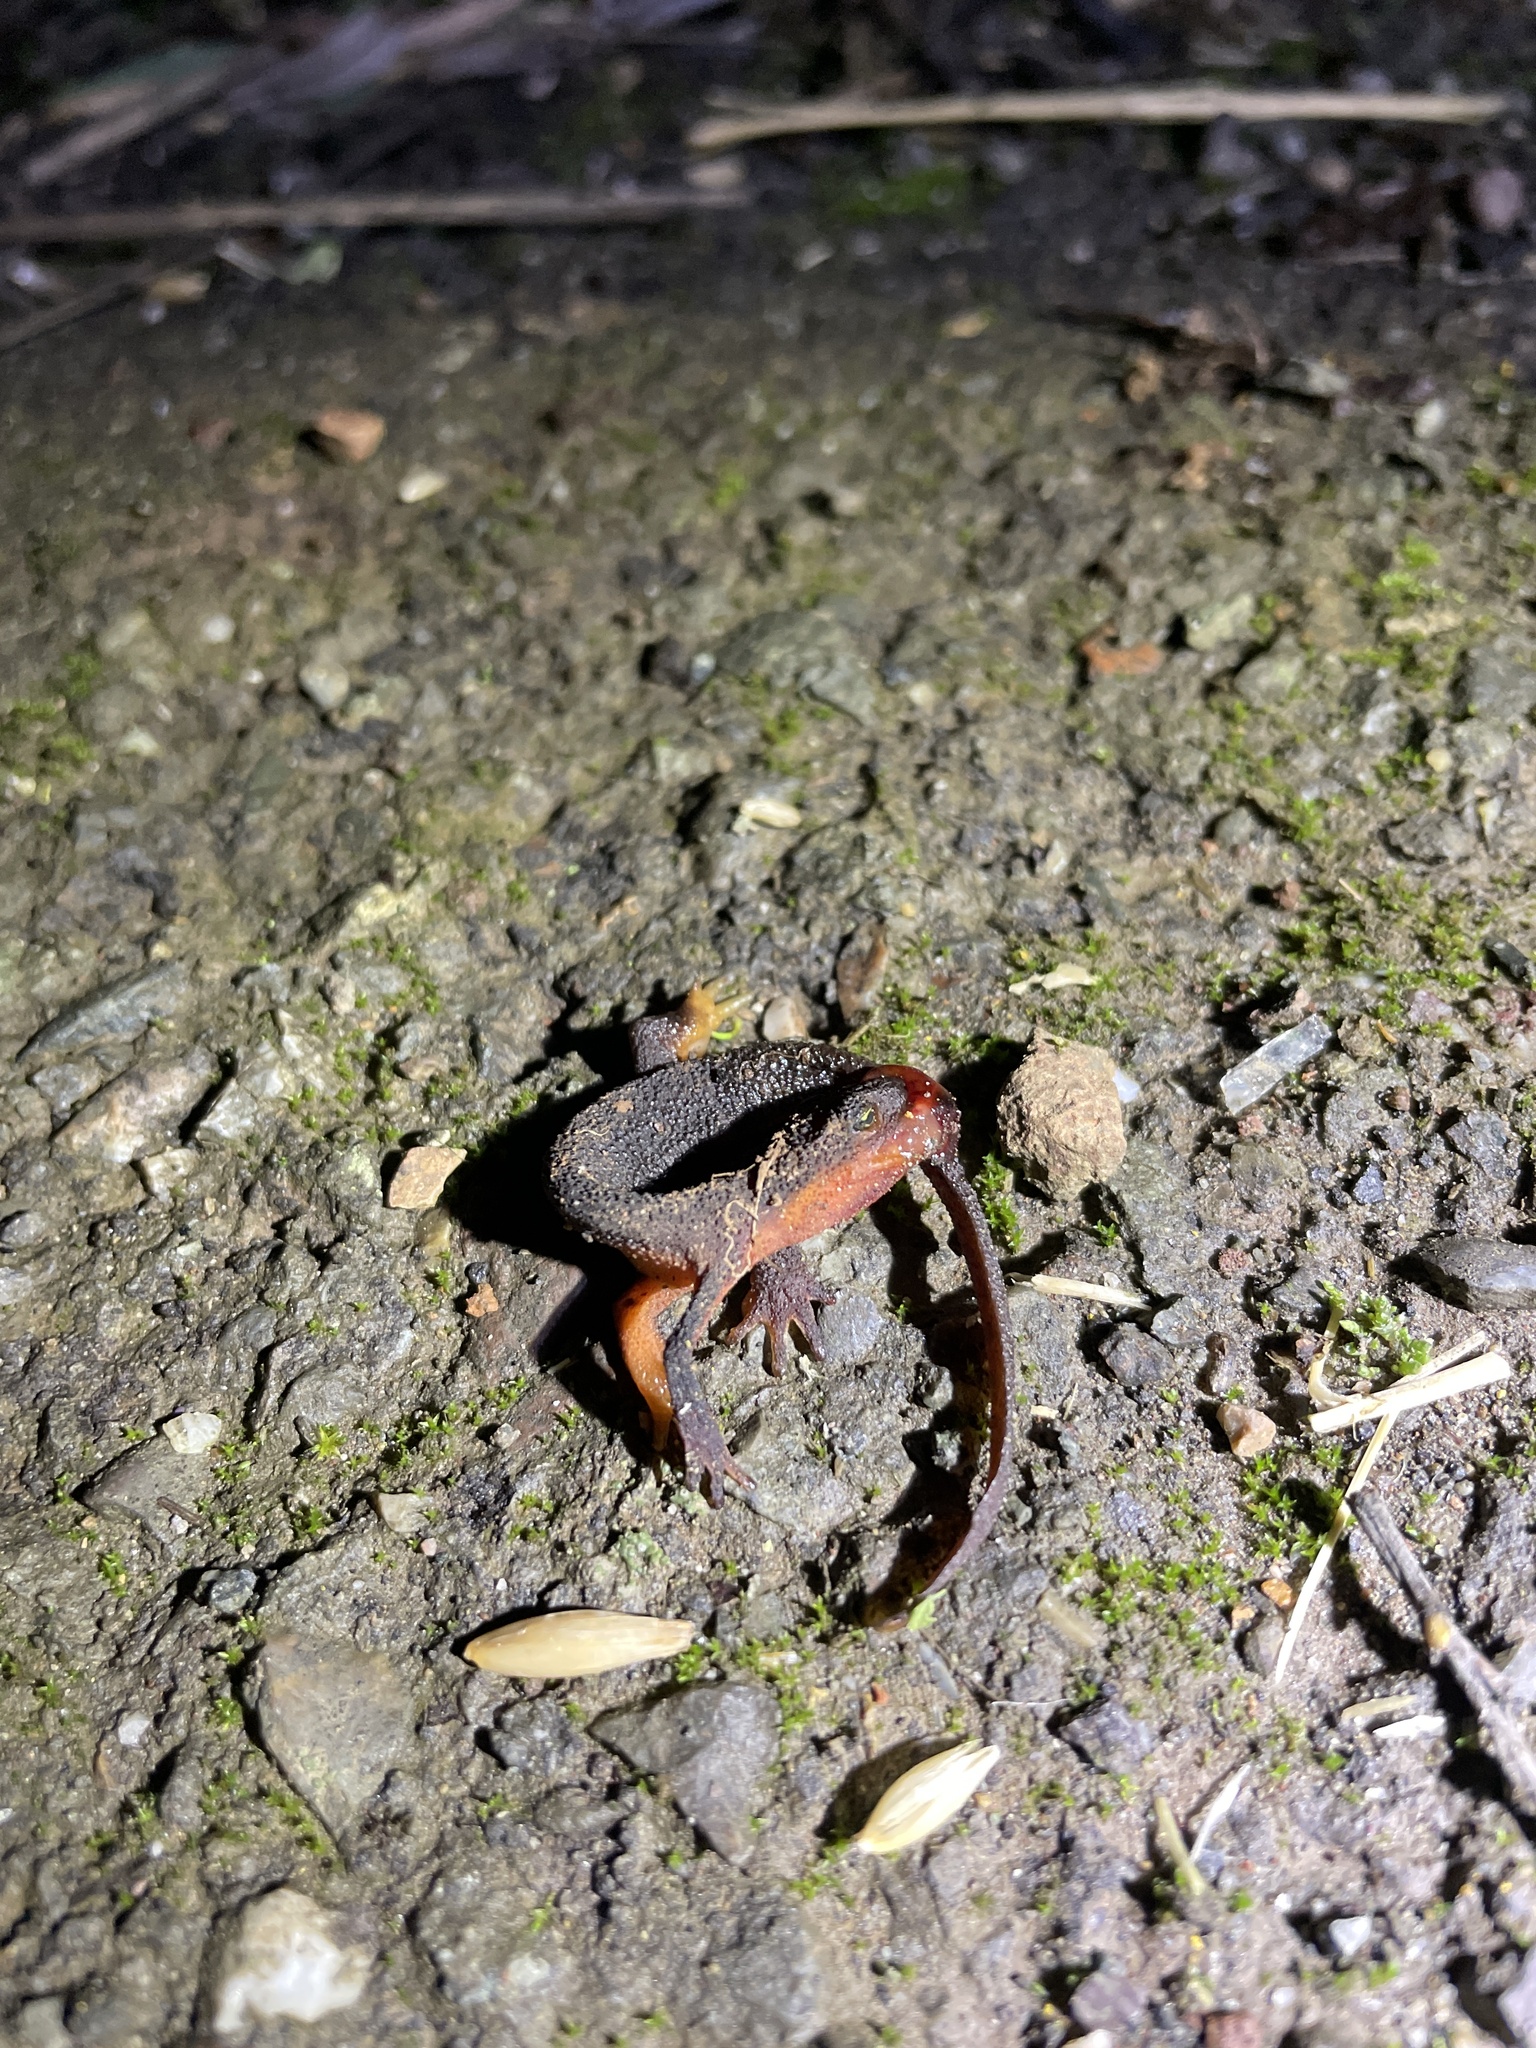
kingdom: Animalia
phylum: Chordata
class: Amphibia
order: Caudata
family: Salamandridae
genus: Taricha
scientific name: Taricha granulosa
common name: Roughskin newt
